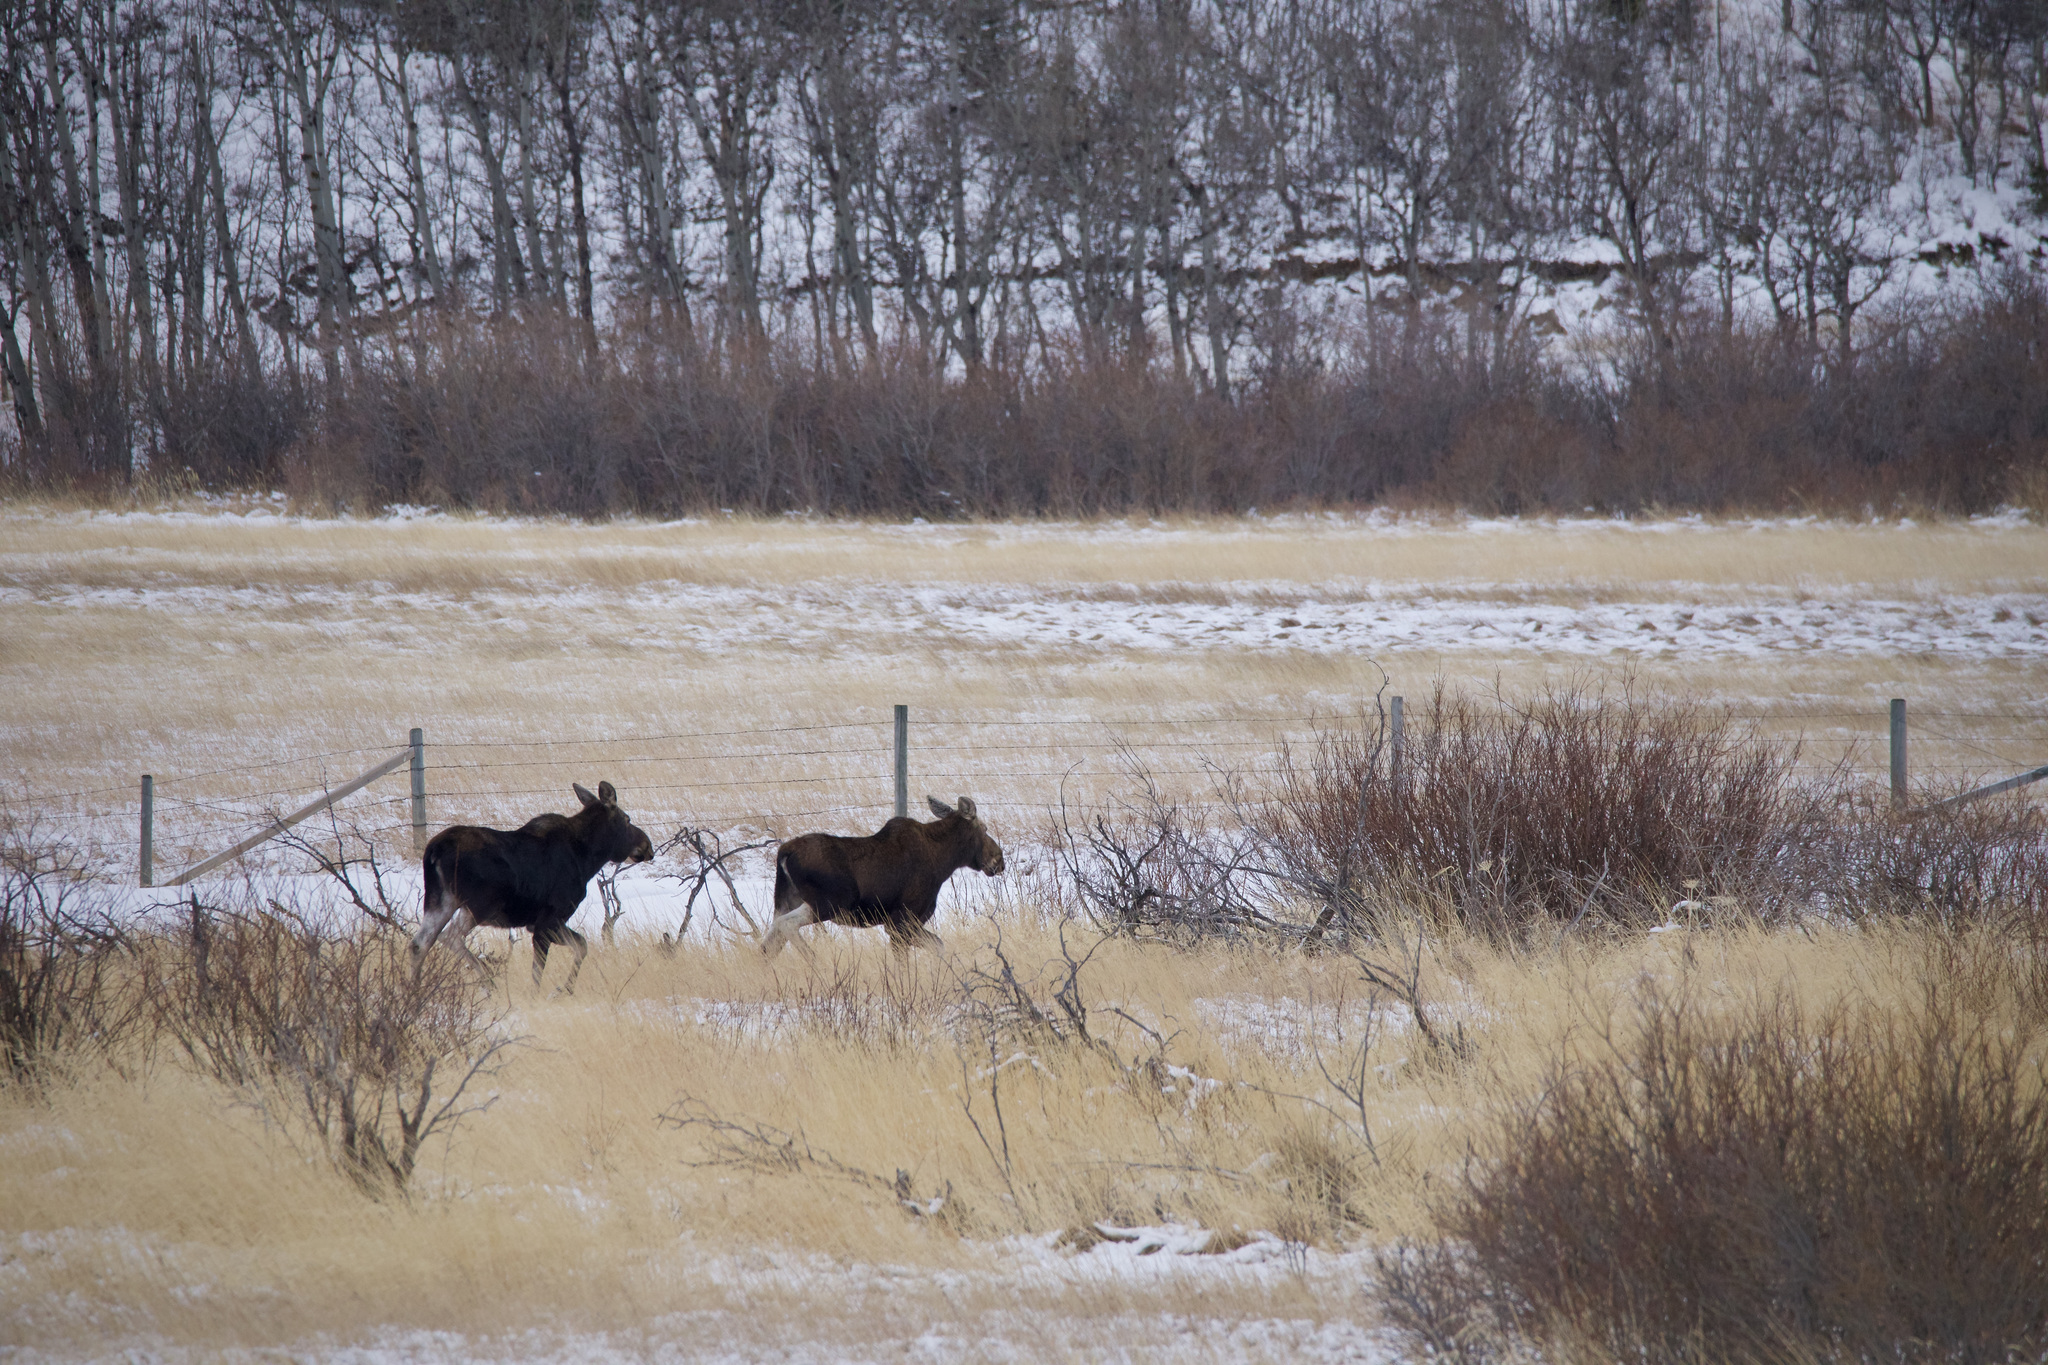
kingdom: Animalia
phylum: Chordata
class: Mammalia
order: Artiodactyla
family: Cervidae
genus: Alces
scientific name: Alces alces
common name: Moose
